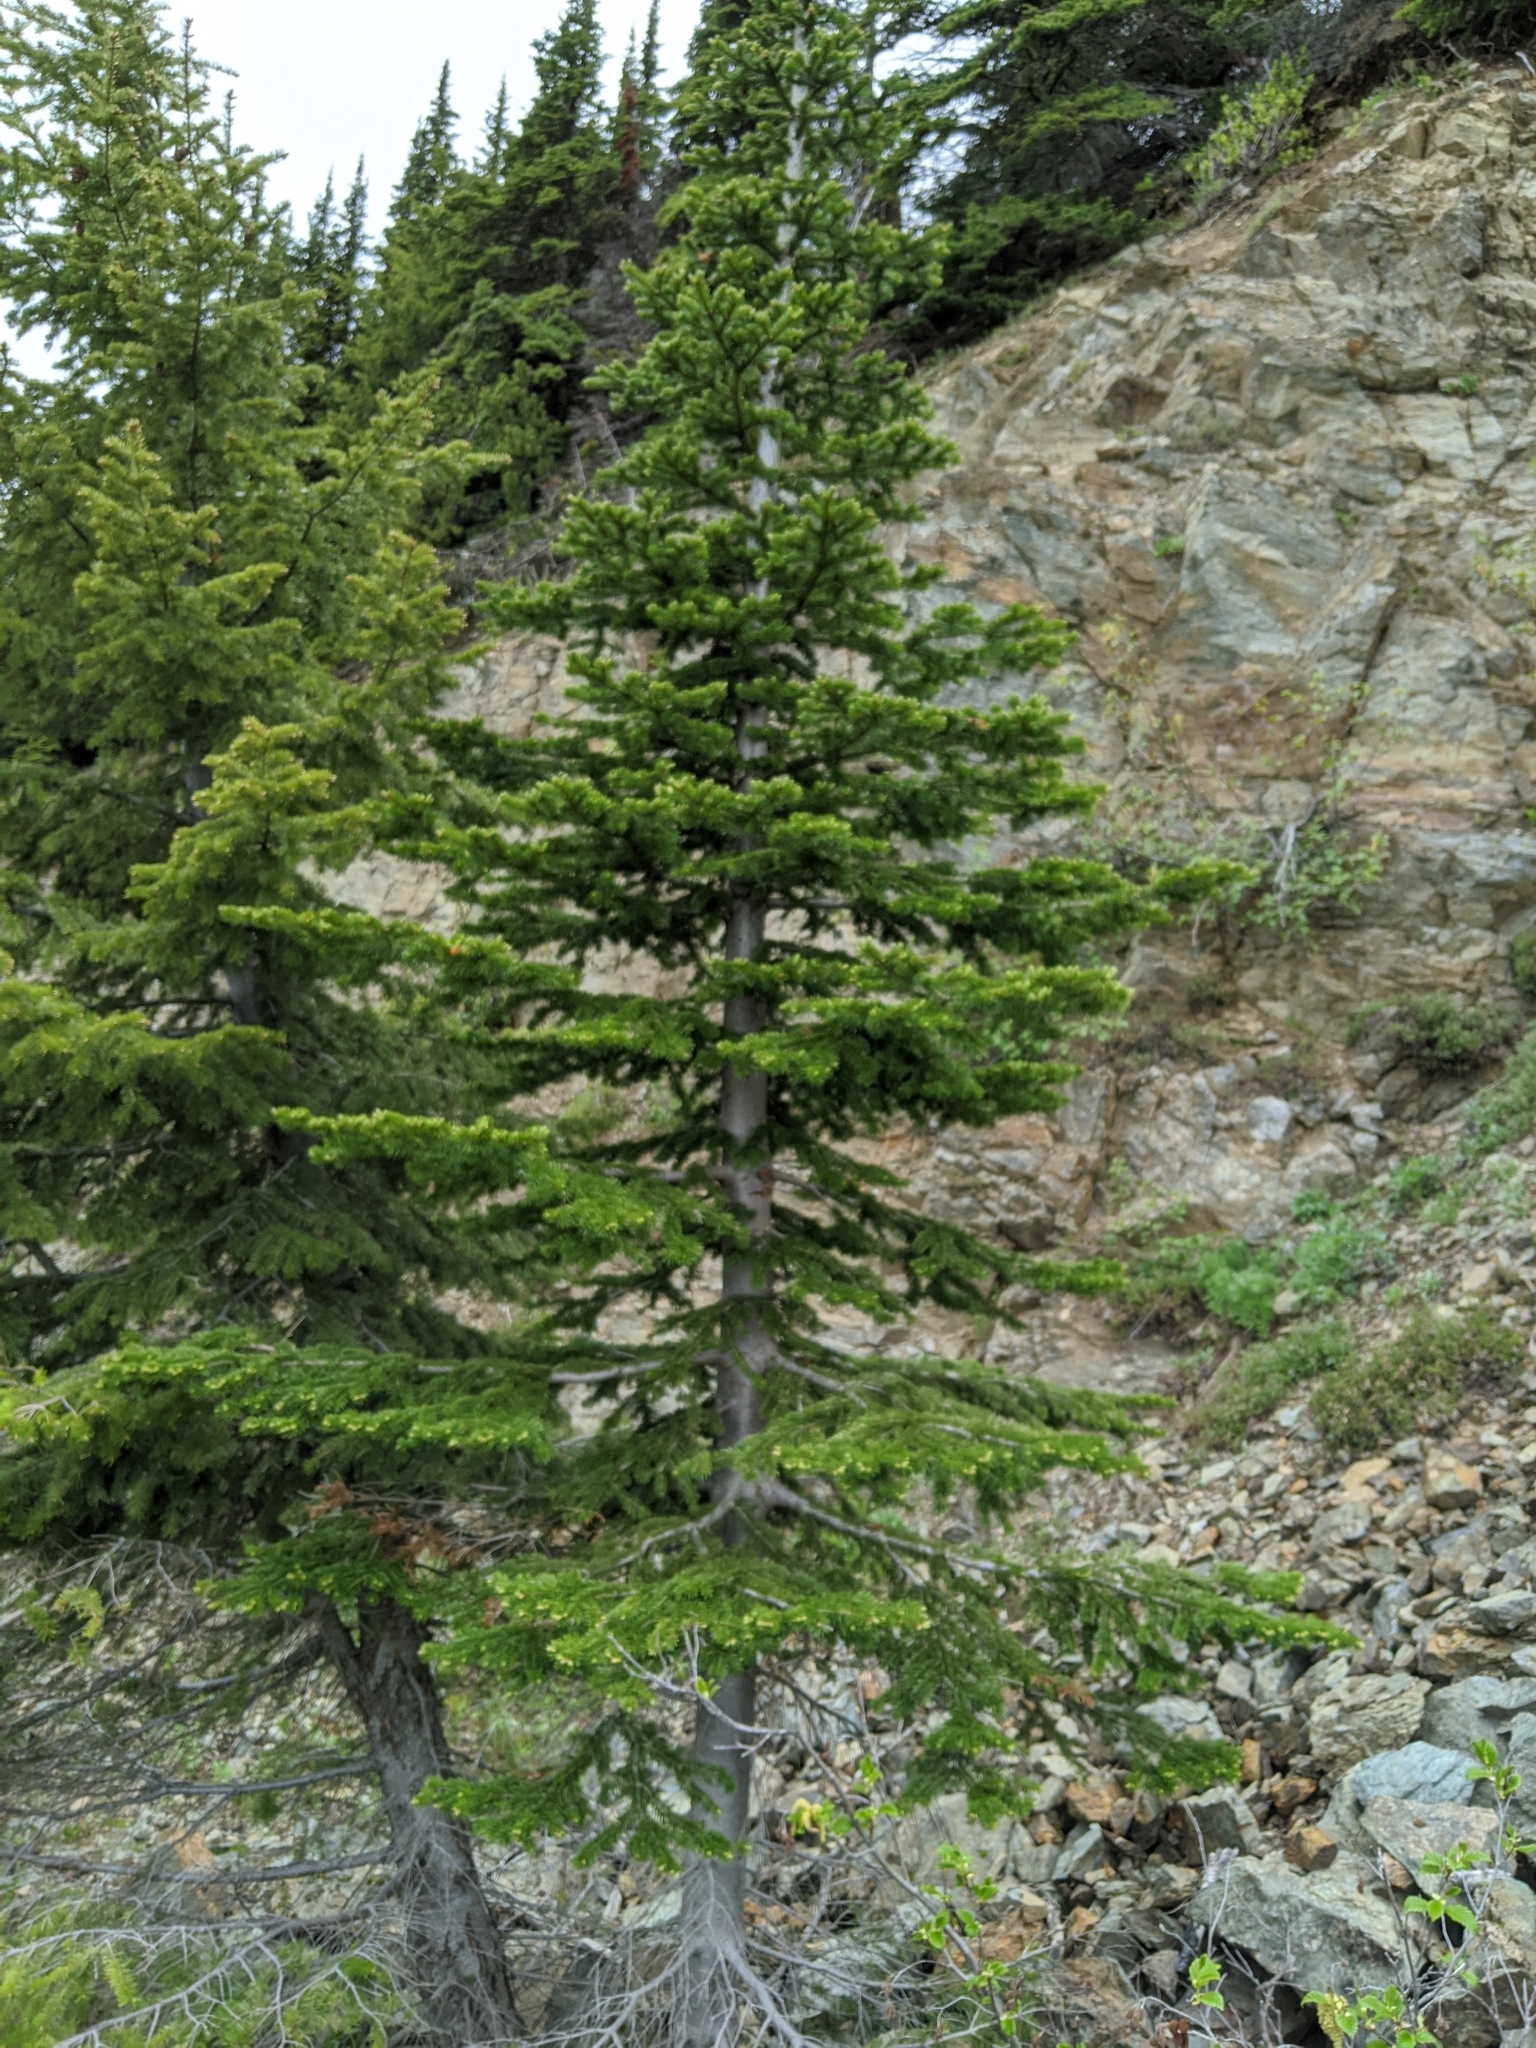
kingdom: Plantae
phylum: Tracheophyta
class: Pinopsida
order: Pinales
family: Pinaceae
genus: Abies
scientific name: Abies lasiocarpa
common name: Subalpine fir
